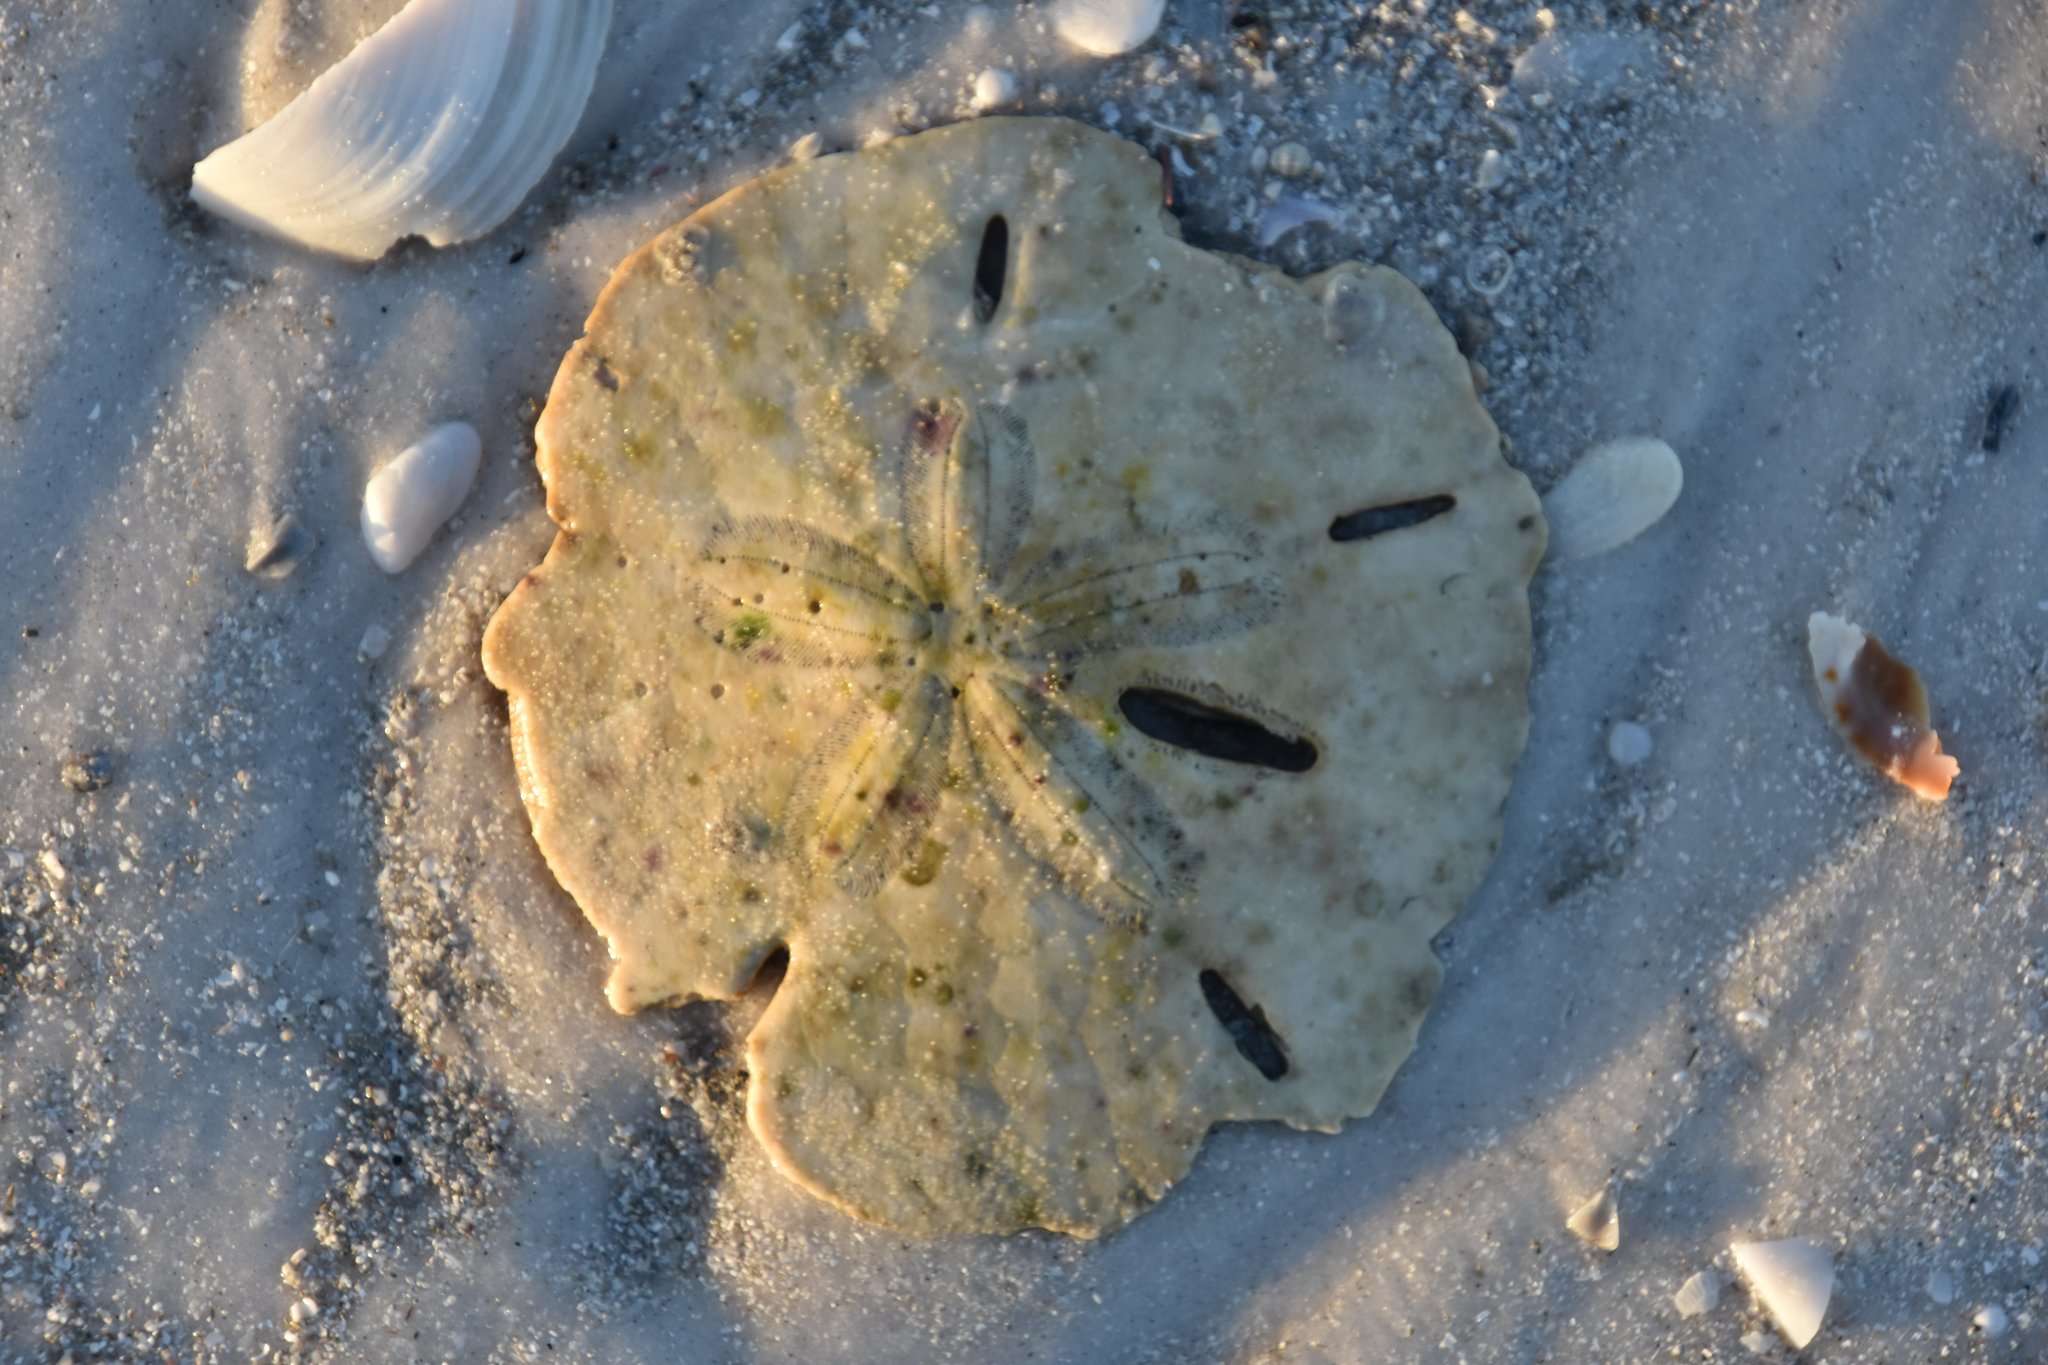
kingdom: Animalia
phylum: Echinodermata
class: Echinoidea
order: Echinolampadacea
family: Mellitidae
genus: Mellita
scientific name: Mellita quinquiesperforata
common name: Sand dollar
